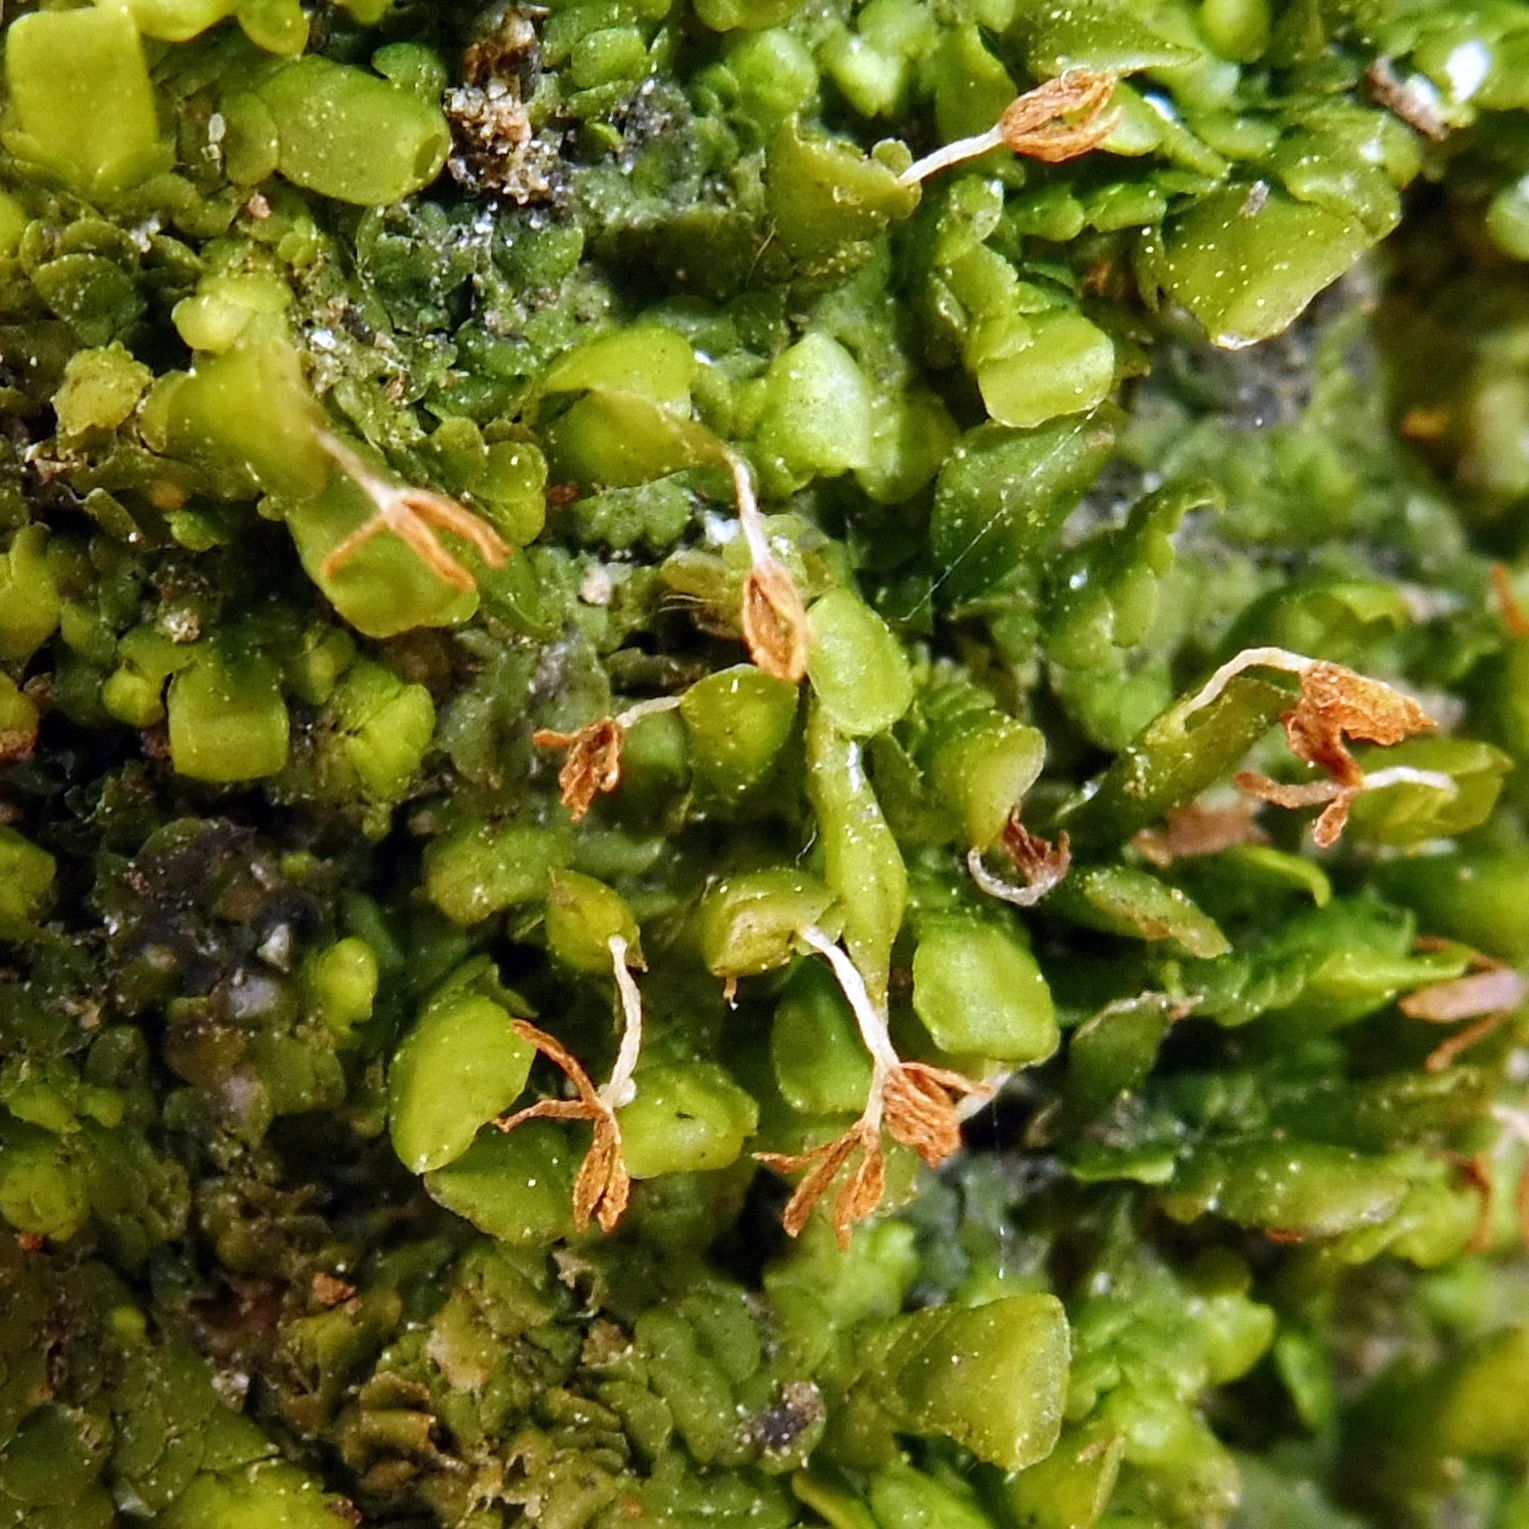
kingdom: Plantae
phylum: Marchantiophyta
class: Jungermanniopsida
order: Porellales
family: Radulaceae
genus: Radula
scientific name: Radula complanata
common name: Flat-leaved scalewort
